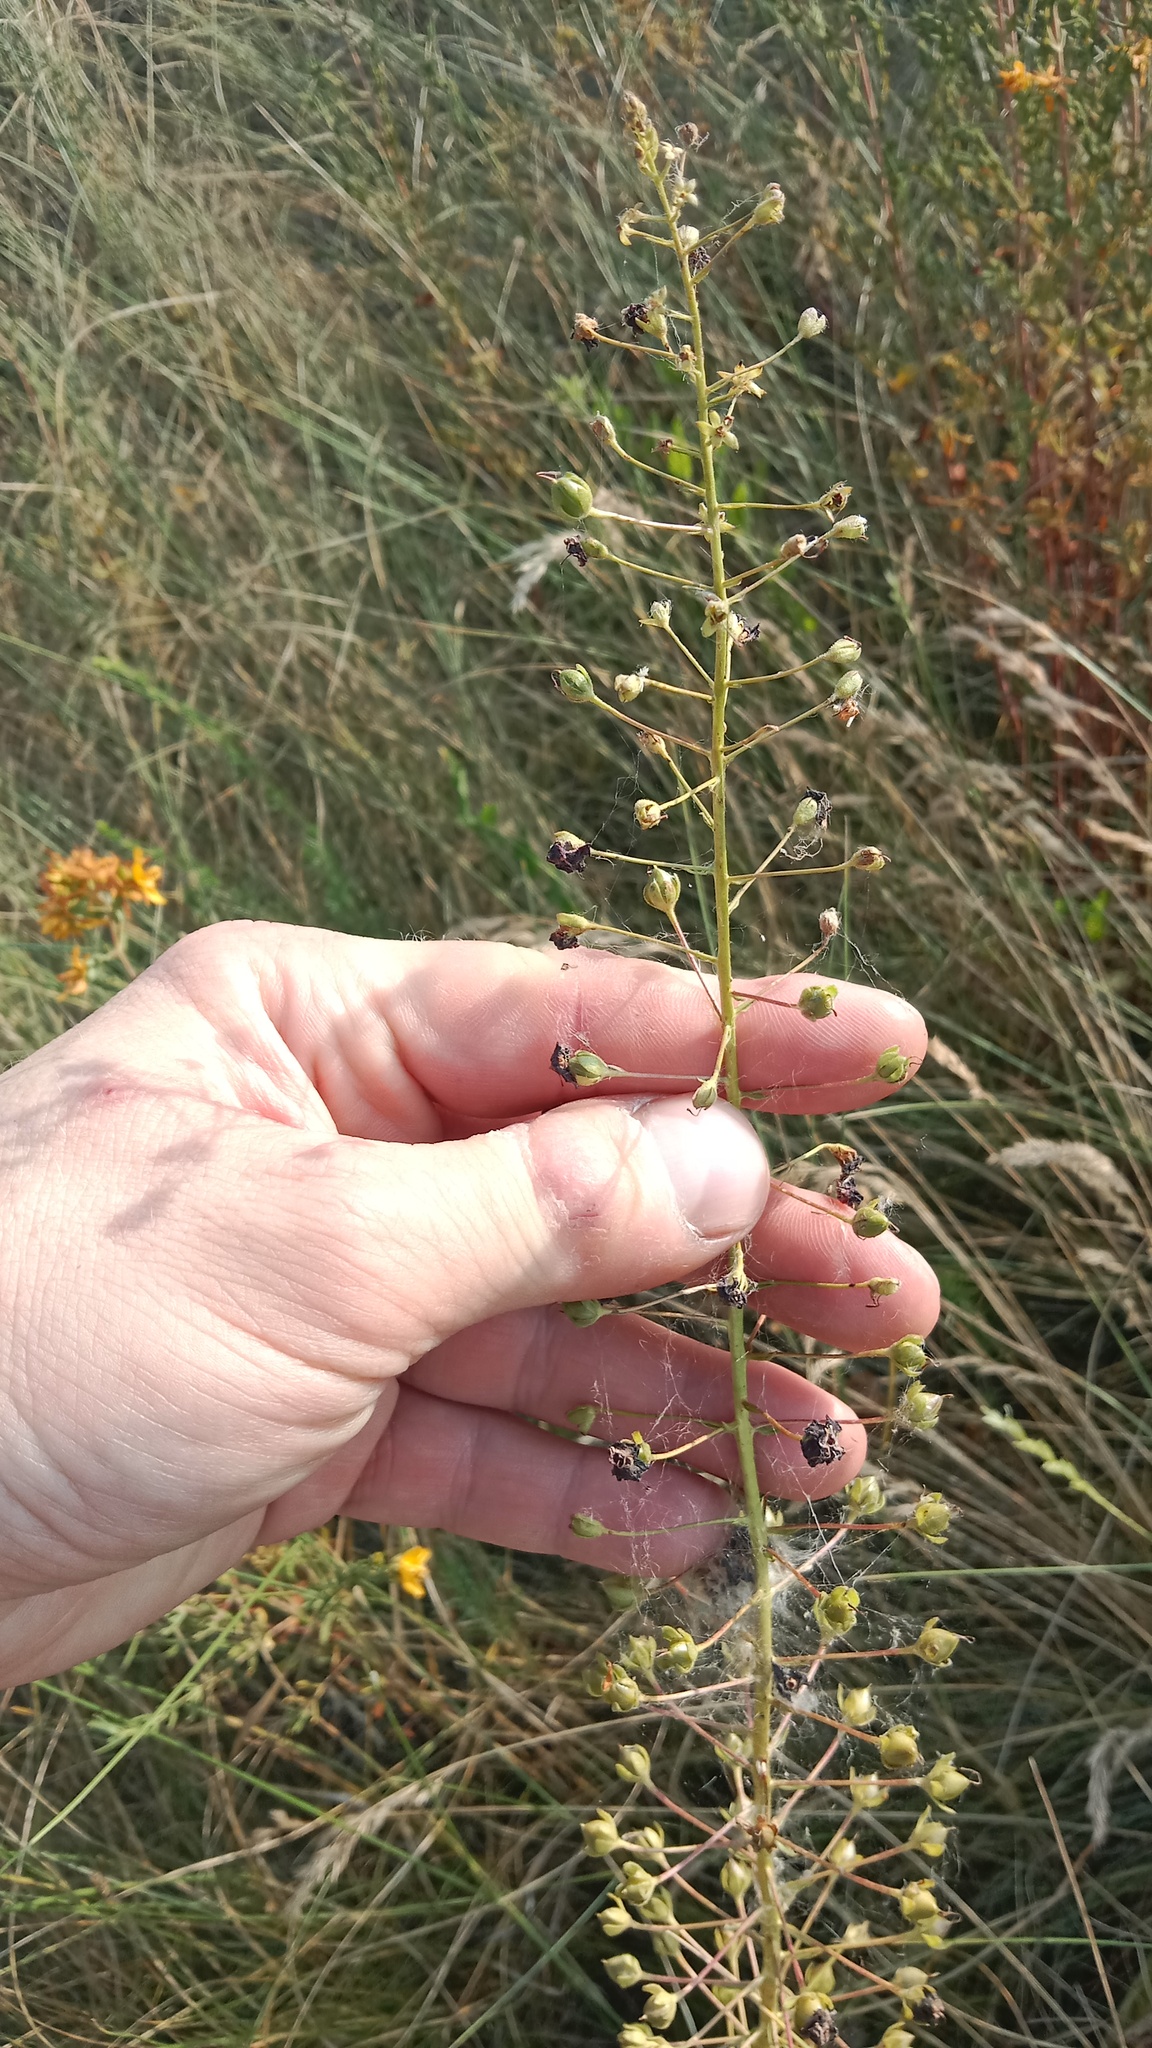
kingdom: Plantae
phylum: Tracheophyta
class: Magnoliopsida
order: Lamiales
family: Scrophulariaceae
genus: Verbascum
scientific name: Verbascum phoeniceum
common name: Purple mullein
